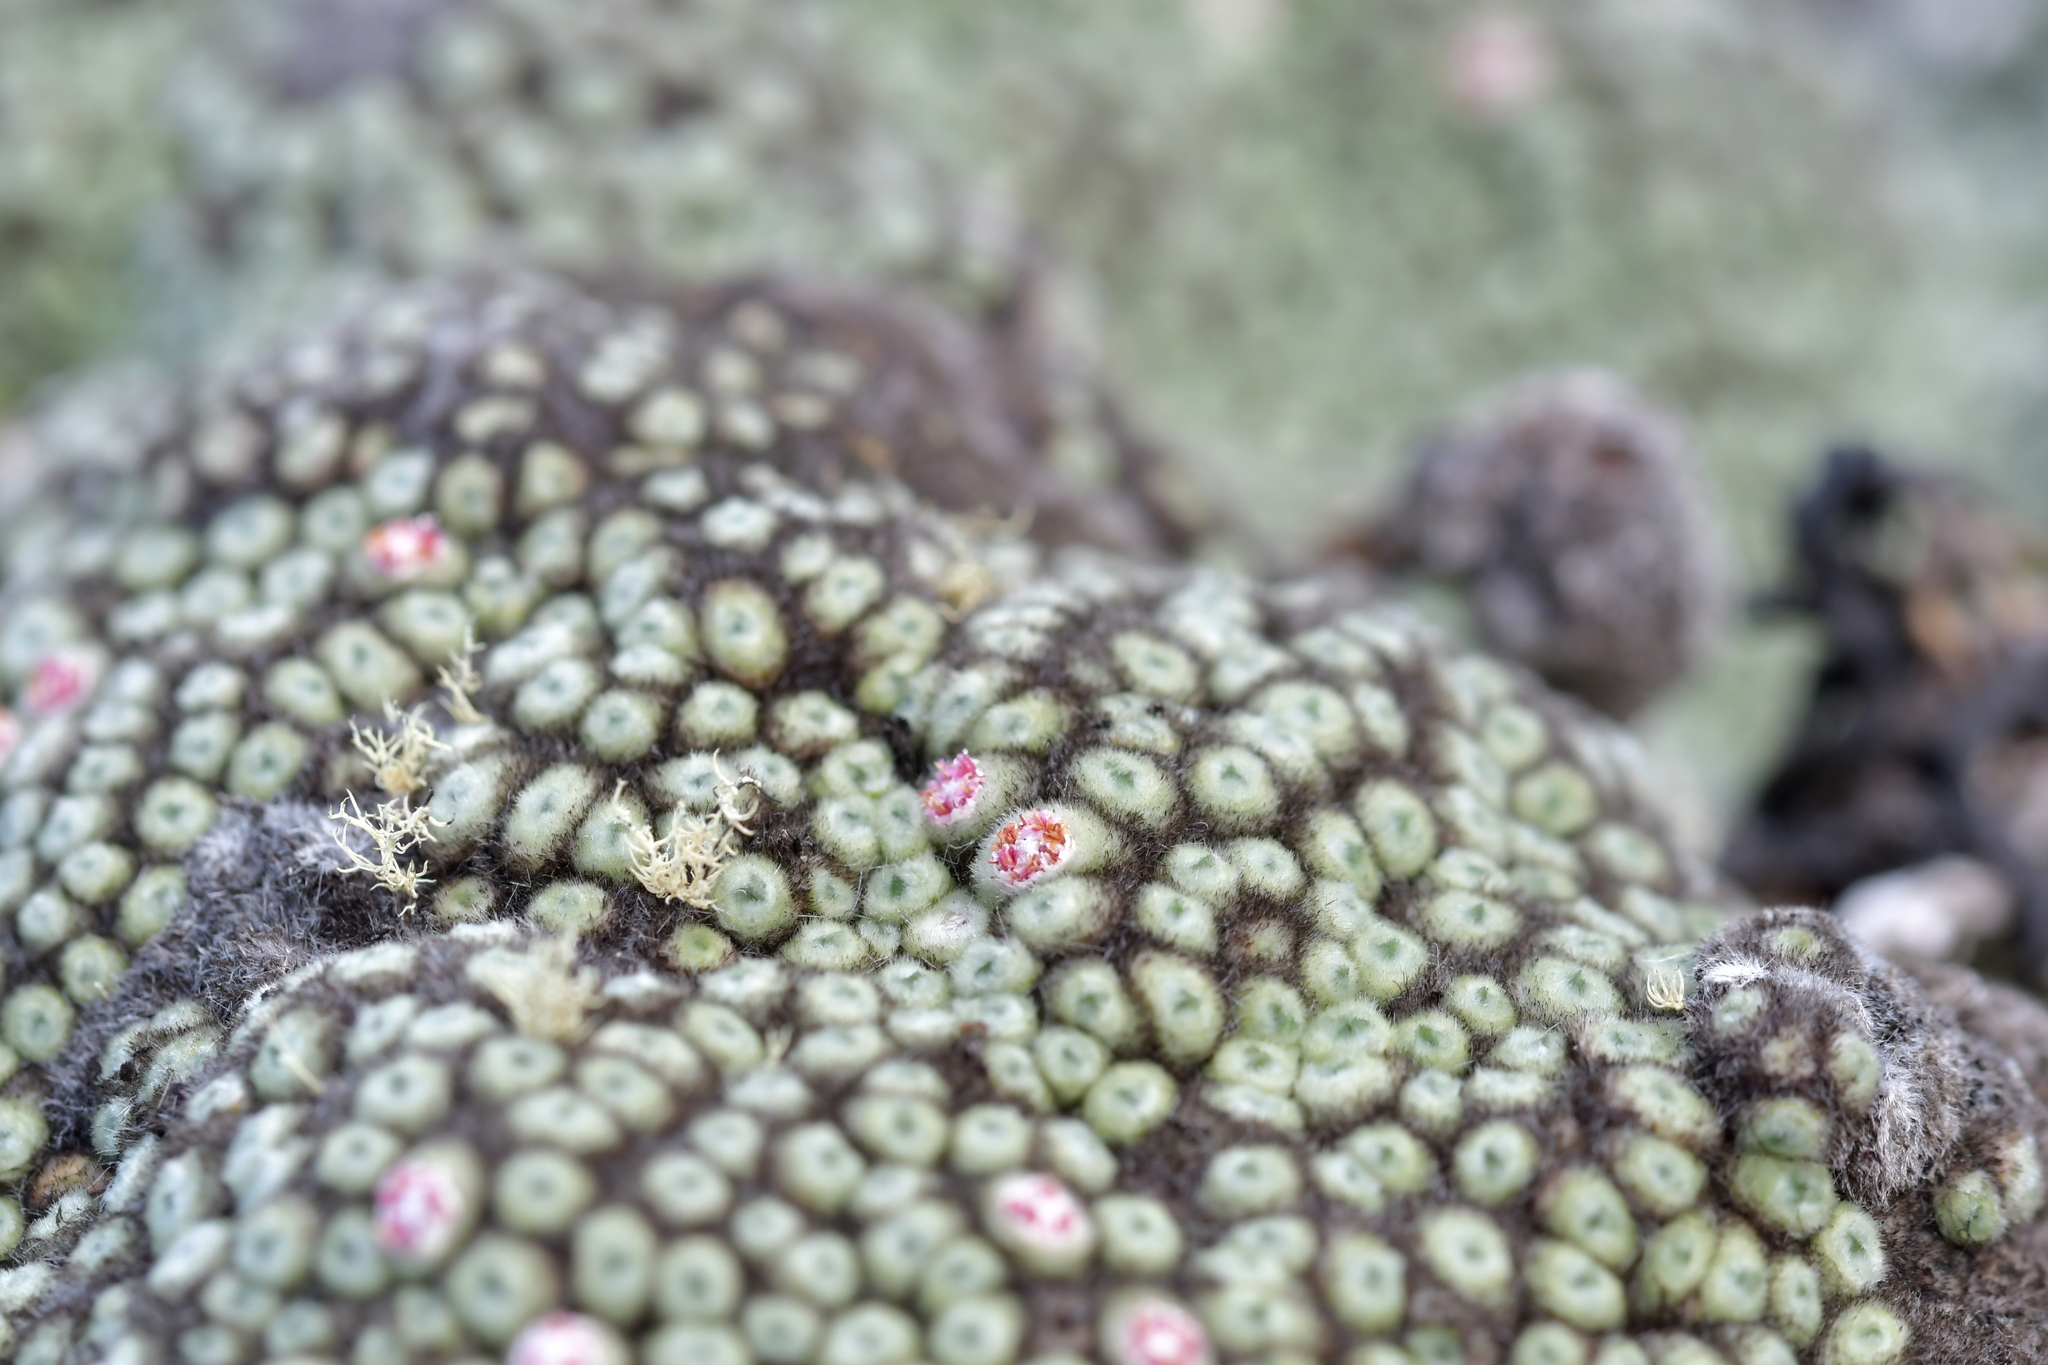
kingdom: Plantae
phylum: Tracheophyta
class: Magnoliopsida
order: Asterales
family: Asteraceae
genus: Raoulia
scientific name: Raoulia rubra
